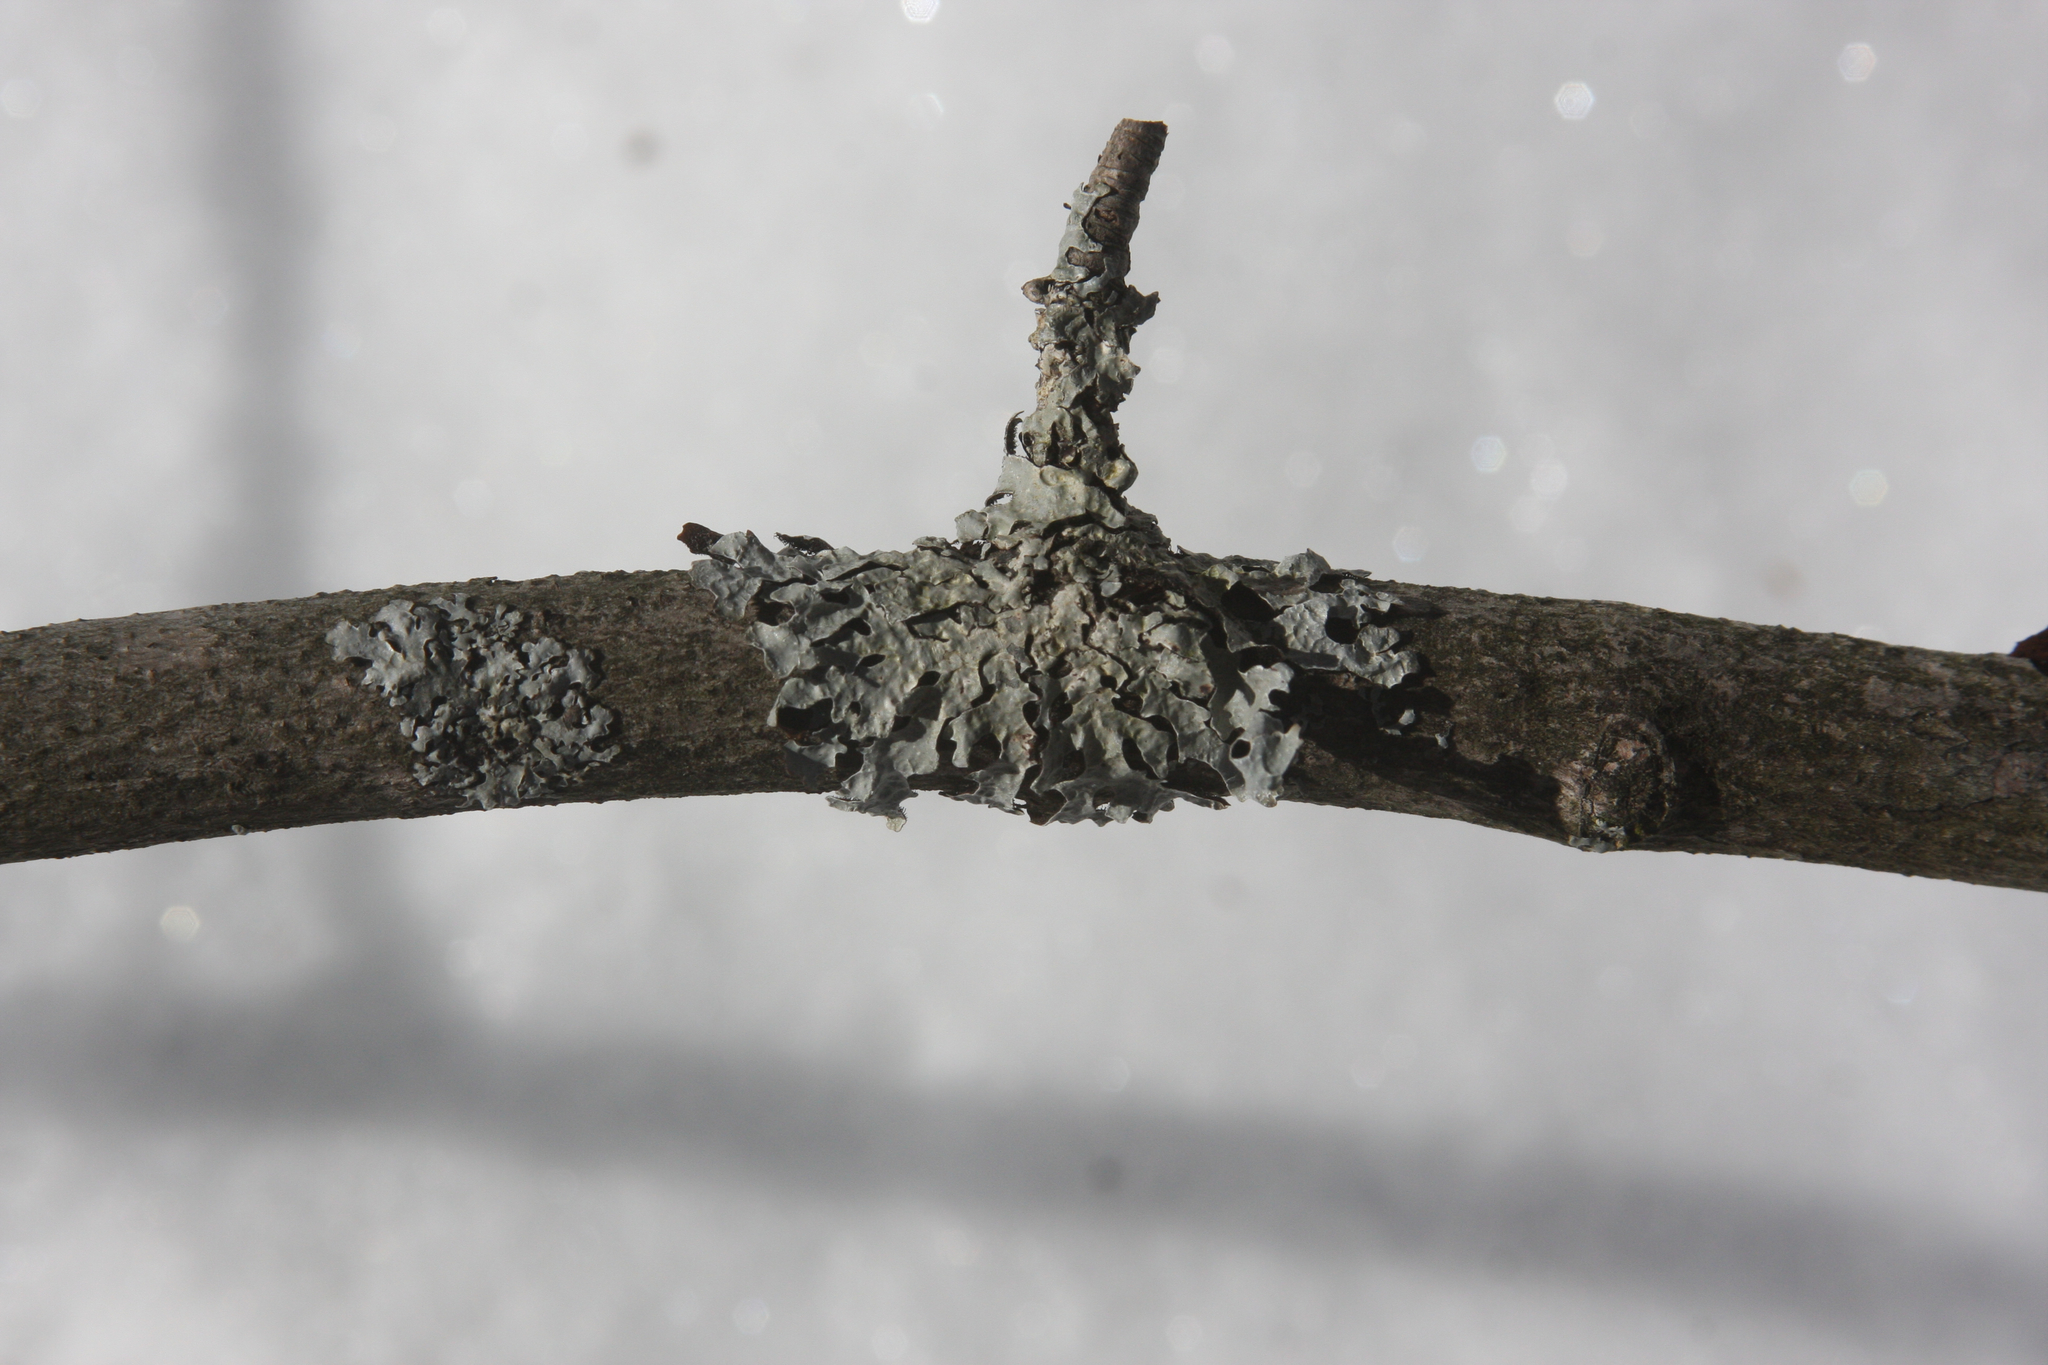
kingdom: Fungi
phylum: Ascomycota
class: Lecanoromycetes
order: Lecanorales
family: Parmeliaceae
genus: Parmelia
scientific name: Parmelia sulcata
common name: Netted shield lichen
